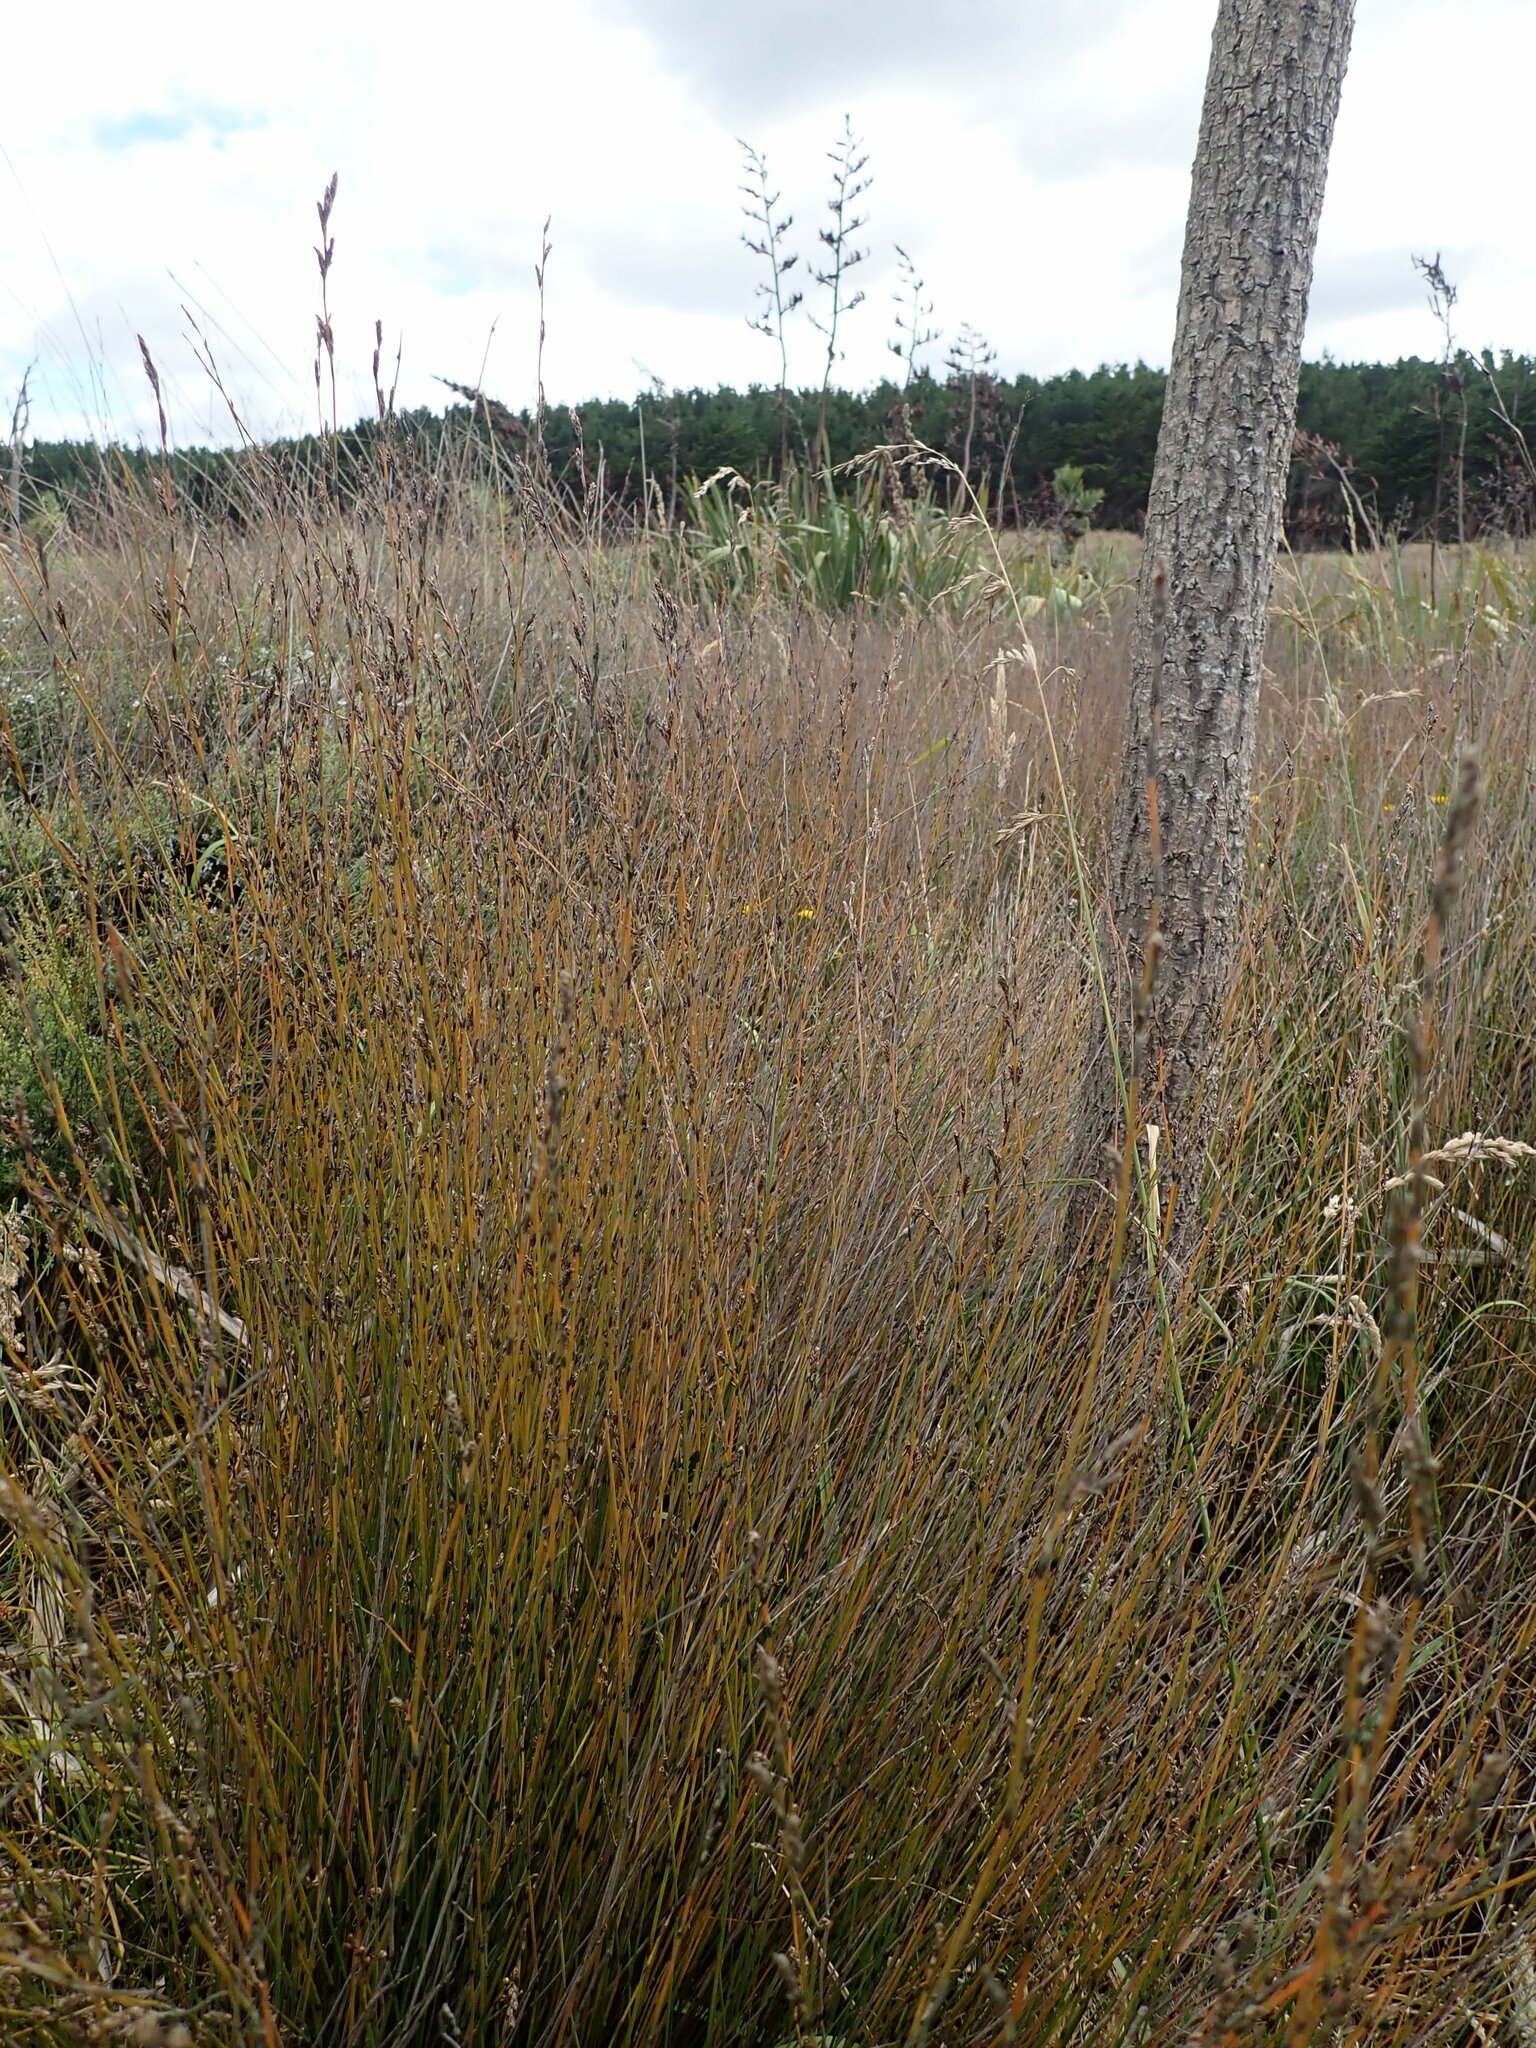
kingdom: Plantae
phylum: Tracheophyta
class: Liliopsida
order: Poales
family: Restionaceae
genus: Apodasmia
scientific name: Apodasmia similis
